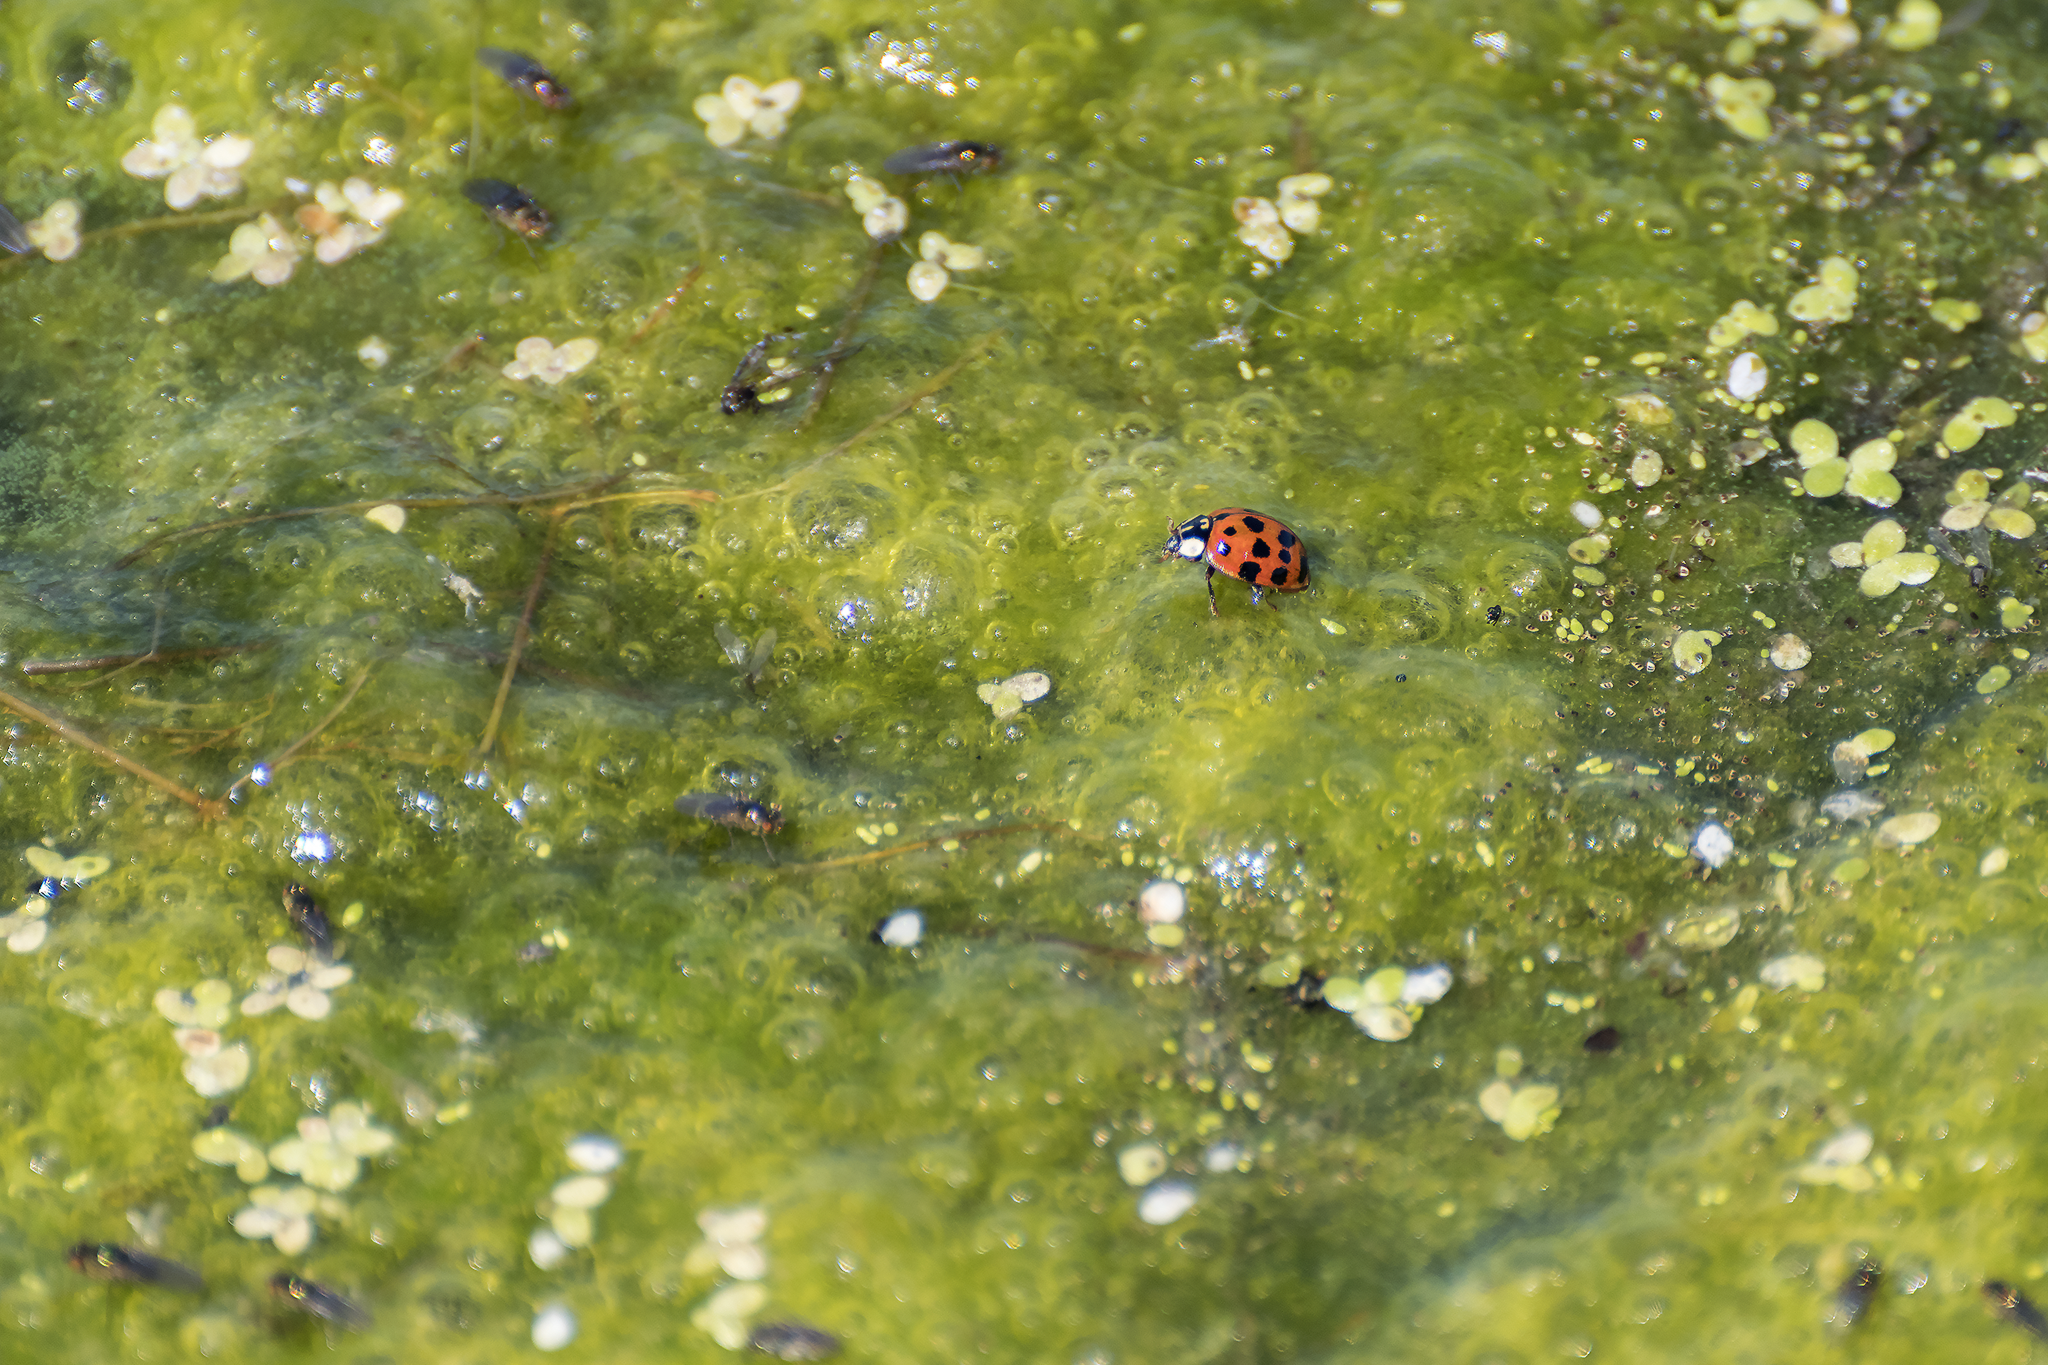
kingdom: Animalia
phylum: Arthropoda
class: Insecta
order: Coleoptera
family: Coccinellidae
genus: Harmonia
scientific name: Harmonia axyridis
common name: Harlequin ladybird
